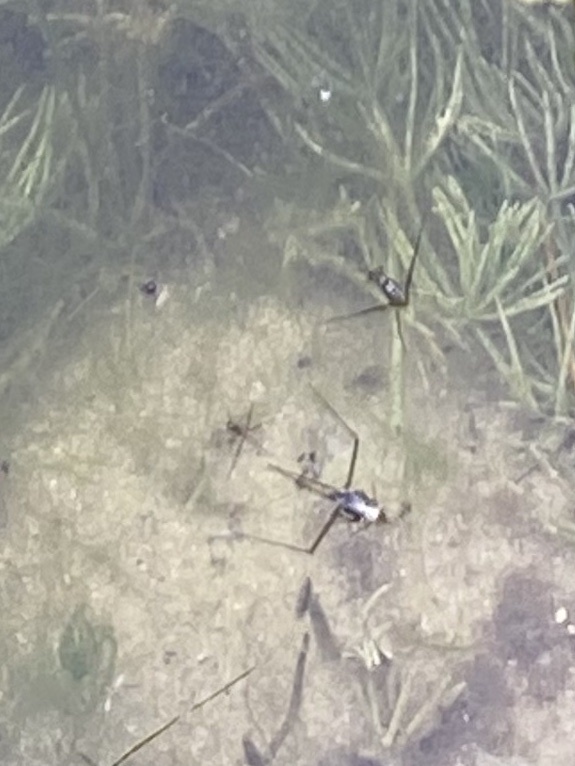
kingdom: Animalia
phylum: Arthropoda
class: Insecta
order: Hemiptera
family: Gerridae
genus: Neogerris
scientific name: Neogerris hesione
